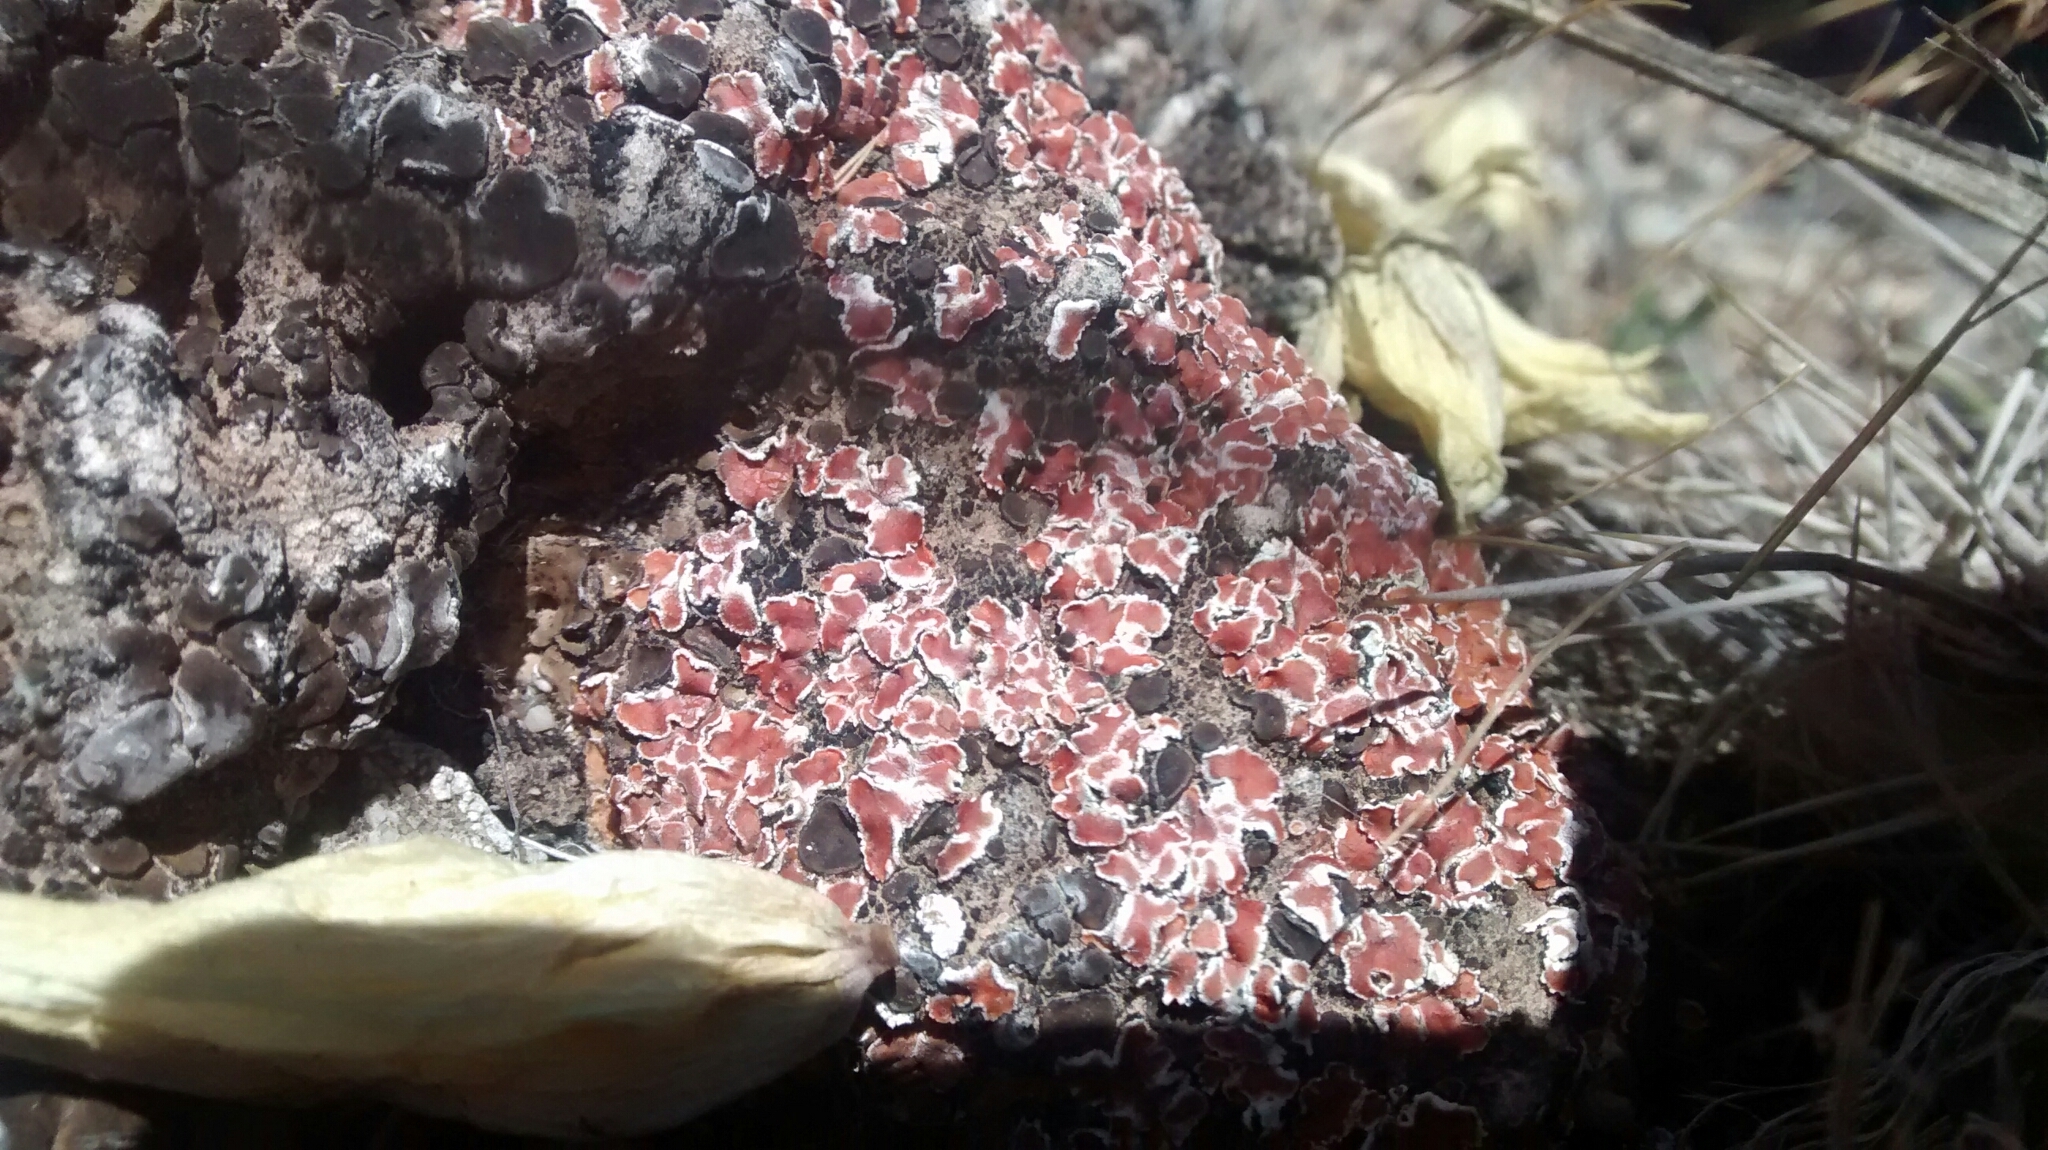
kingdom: Fungi
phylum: Ascomycota
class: Lecanoromycetes
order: Lecanorales
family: Psoraceae
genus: Psora
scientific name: Psora decipiens
